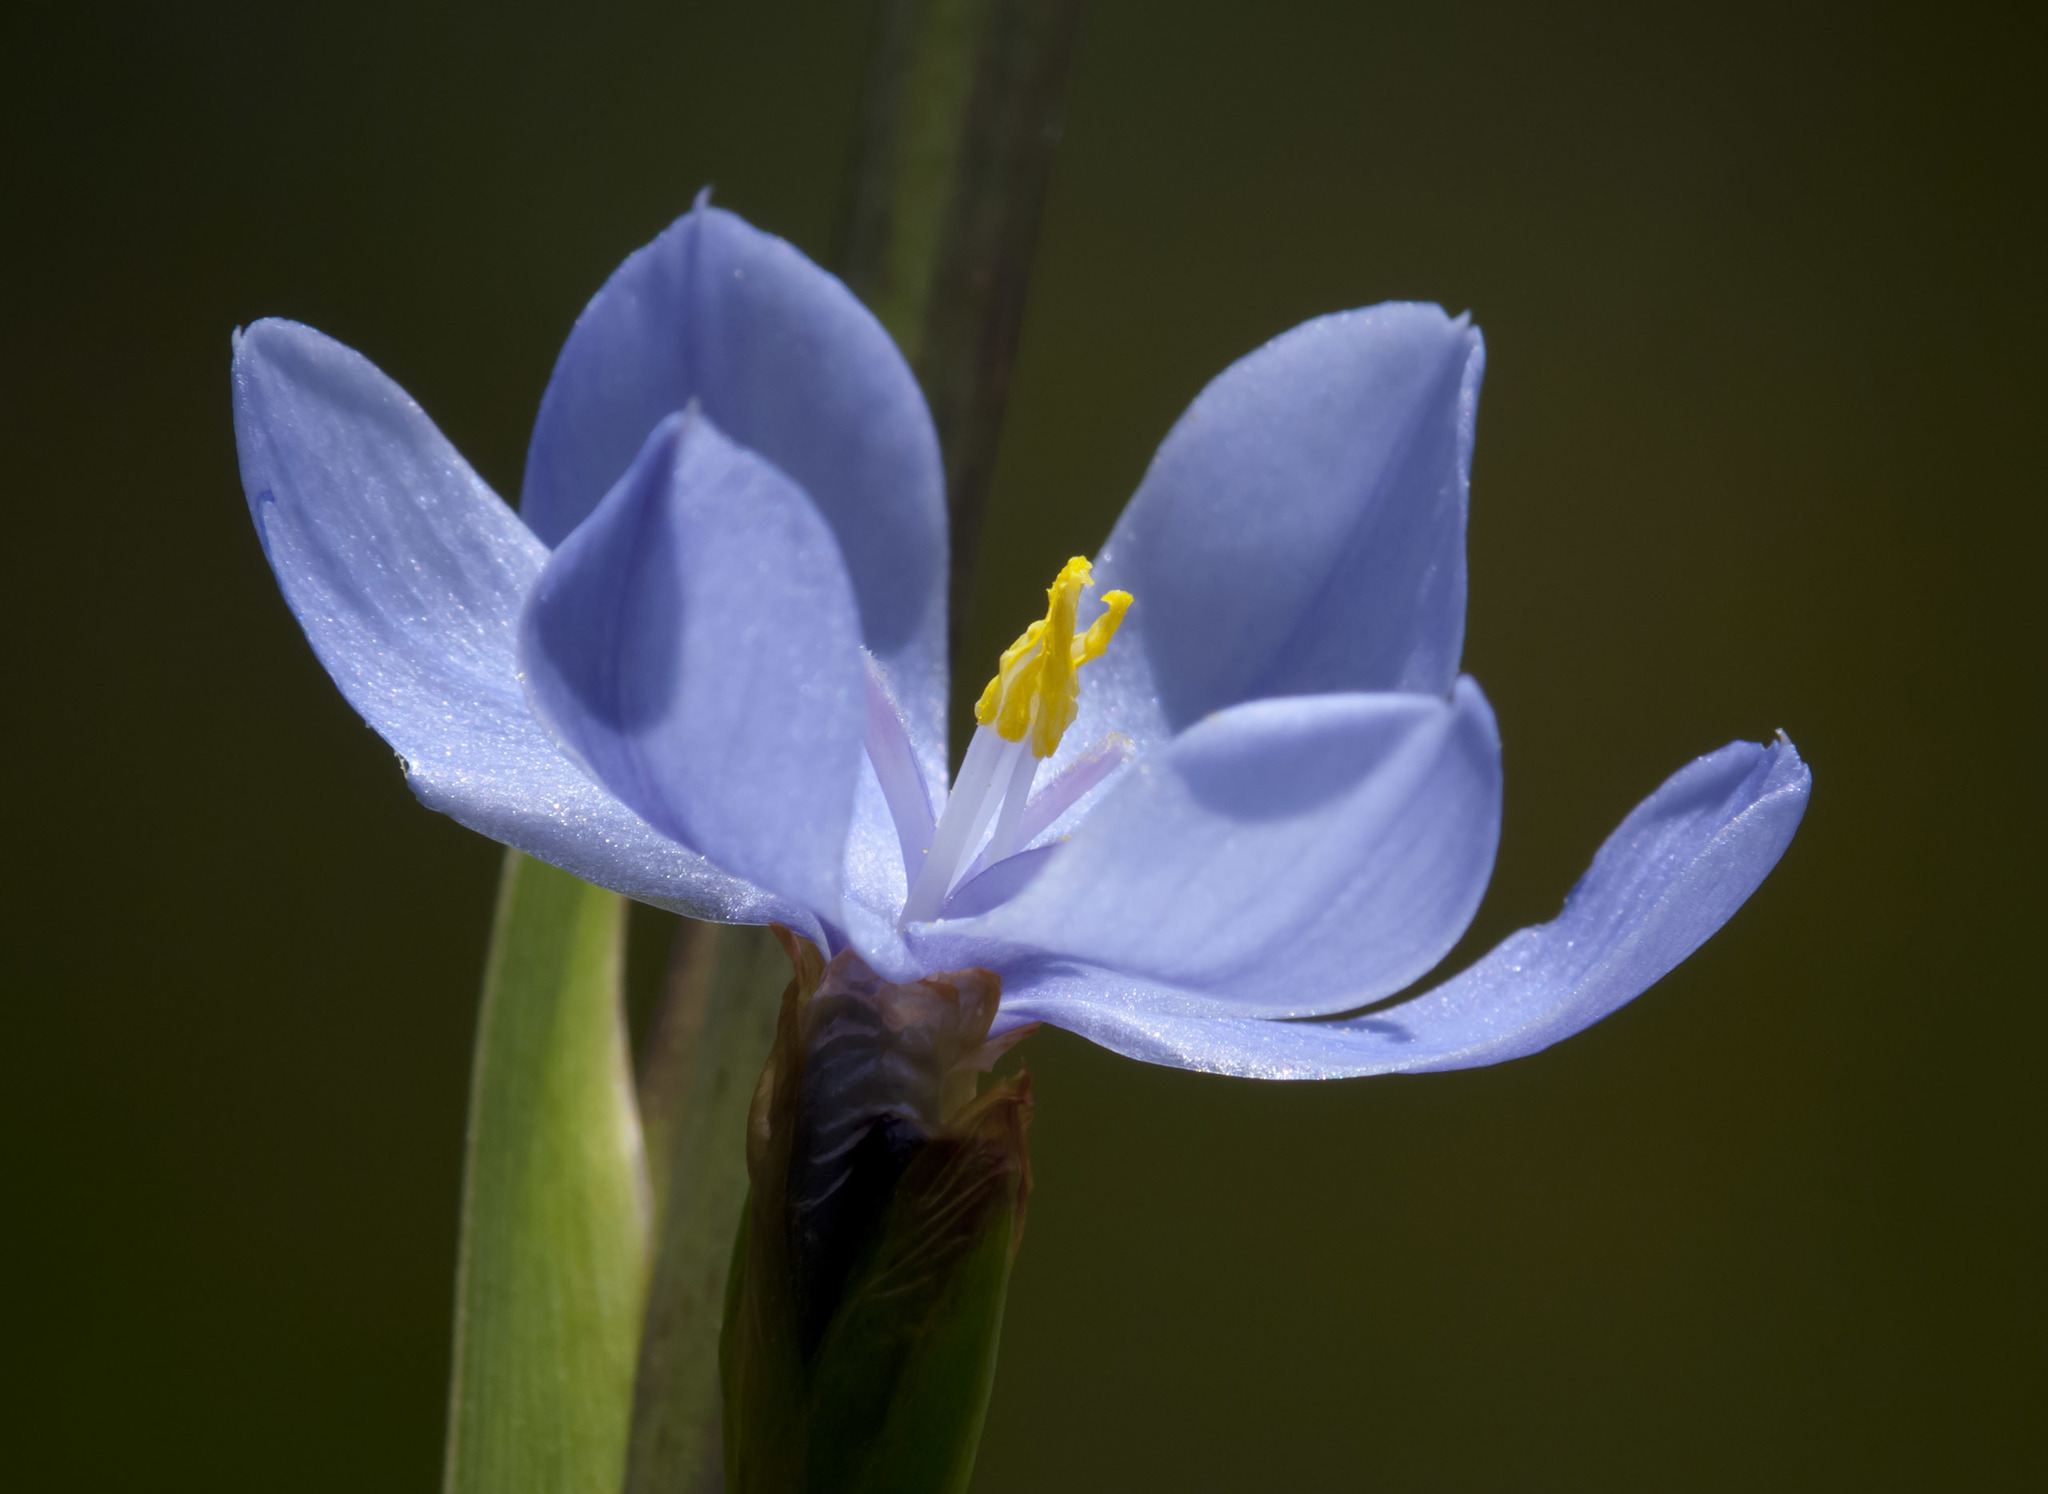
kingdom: Plantae
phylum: Tracheophyta
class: Liliopsida
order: Asparagales
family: Iridaceae
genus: Orthrosanthus
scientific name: Orthrosanthus chimboracensis
